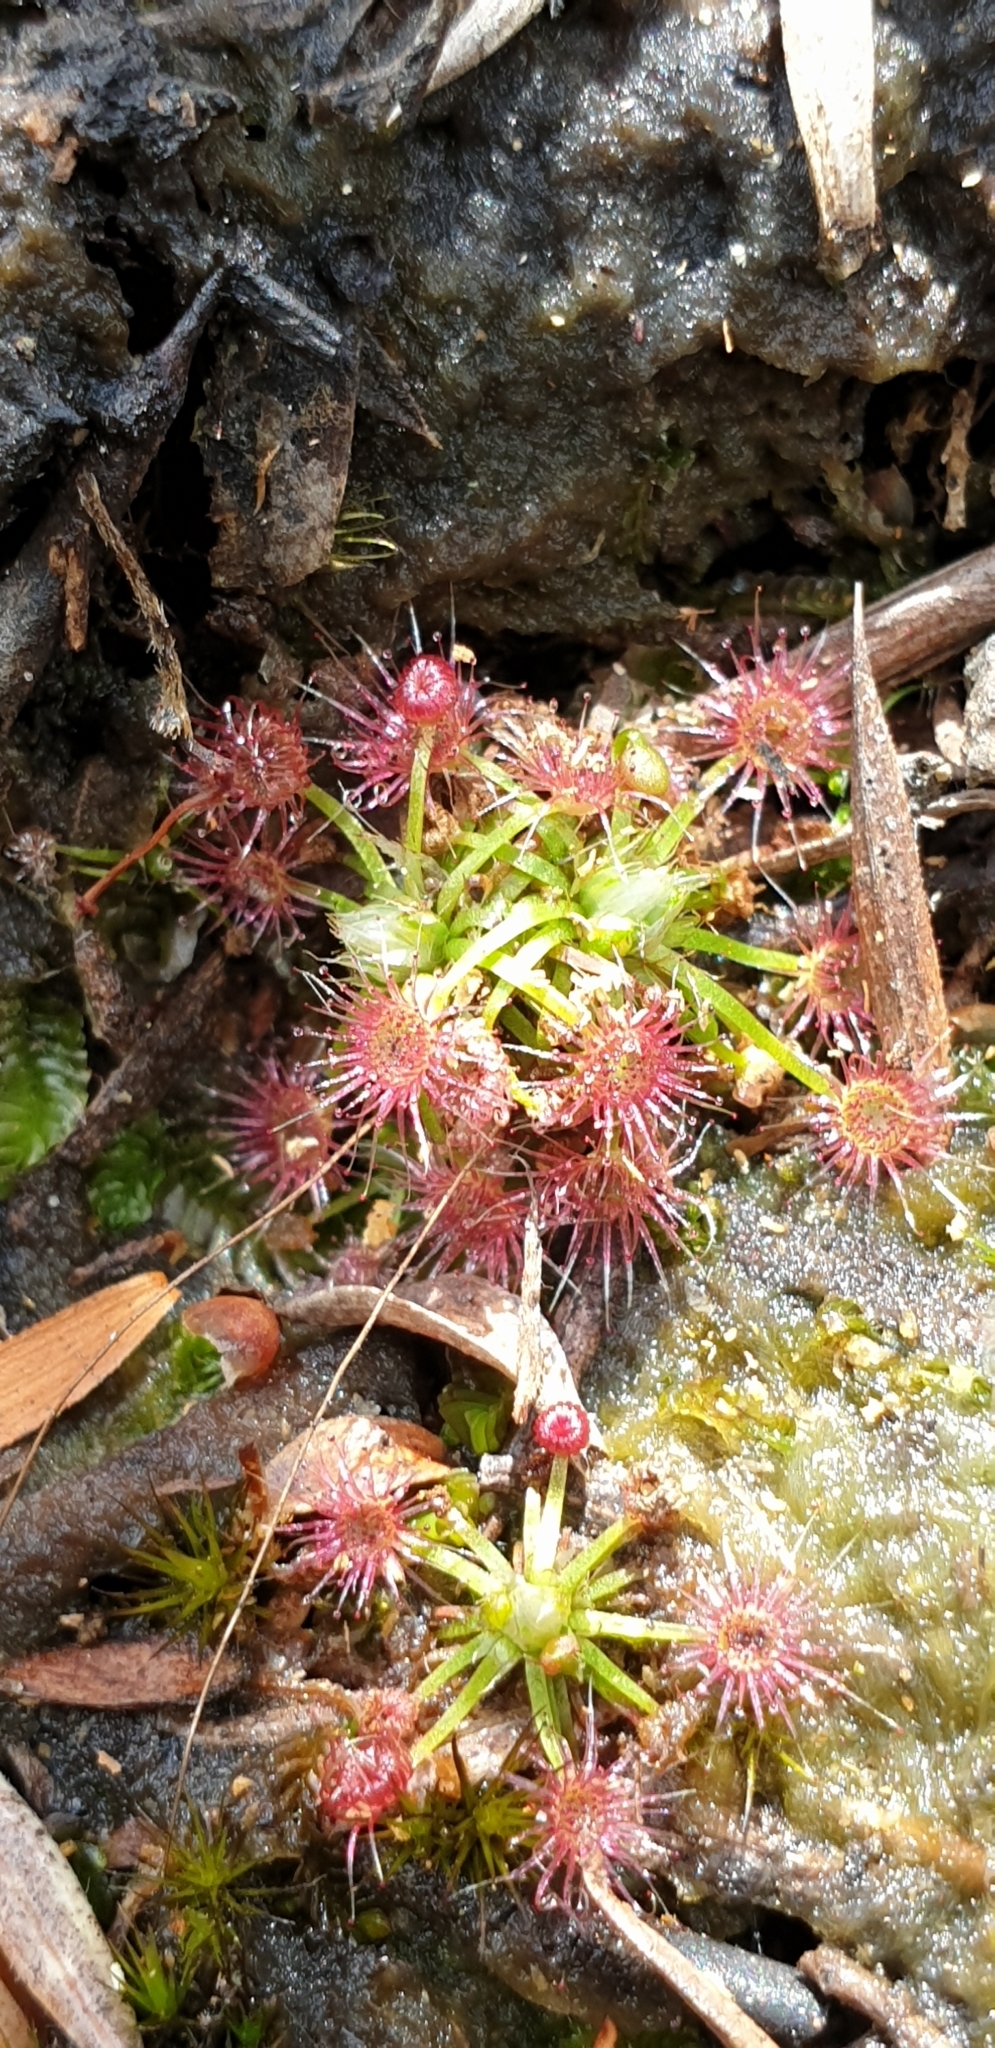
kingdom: Plantae
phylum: Tracheophyta
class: Magnoliopsida
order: Caryophyllales
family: Droseraceae
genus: Drosera
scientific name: Drosera pygmaea
